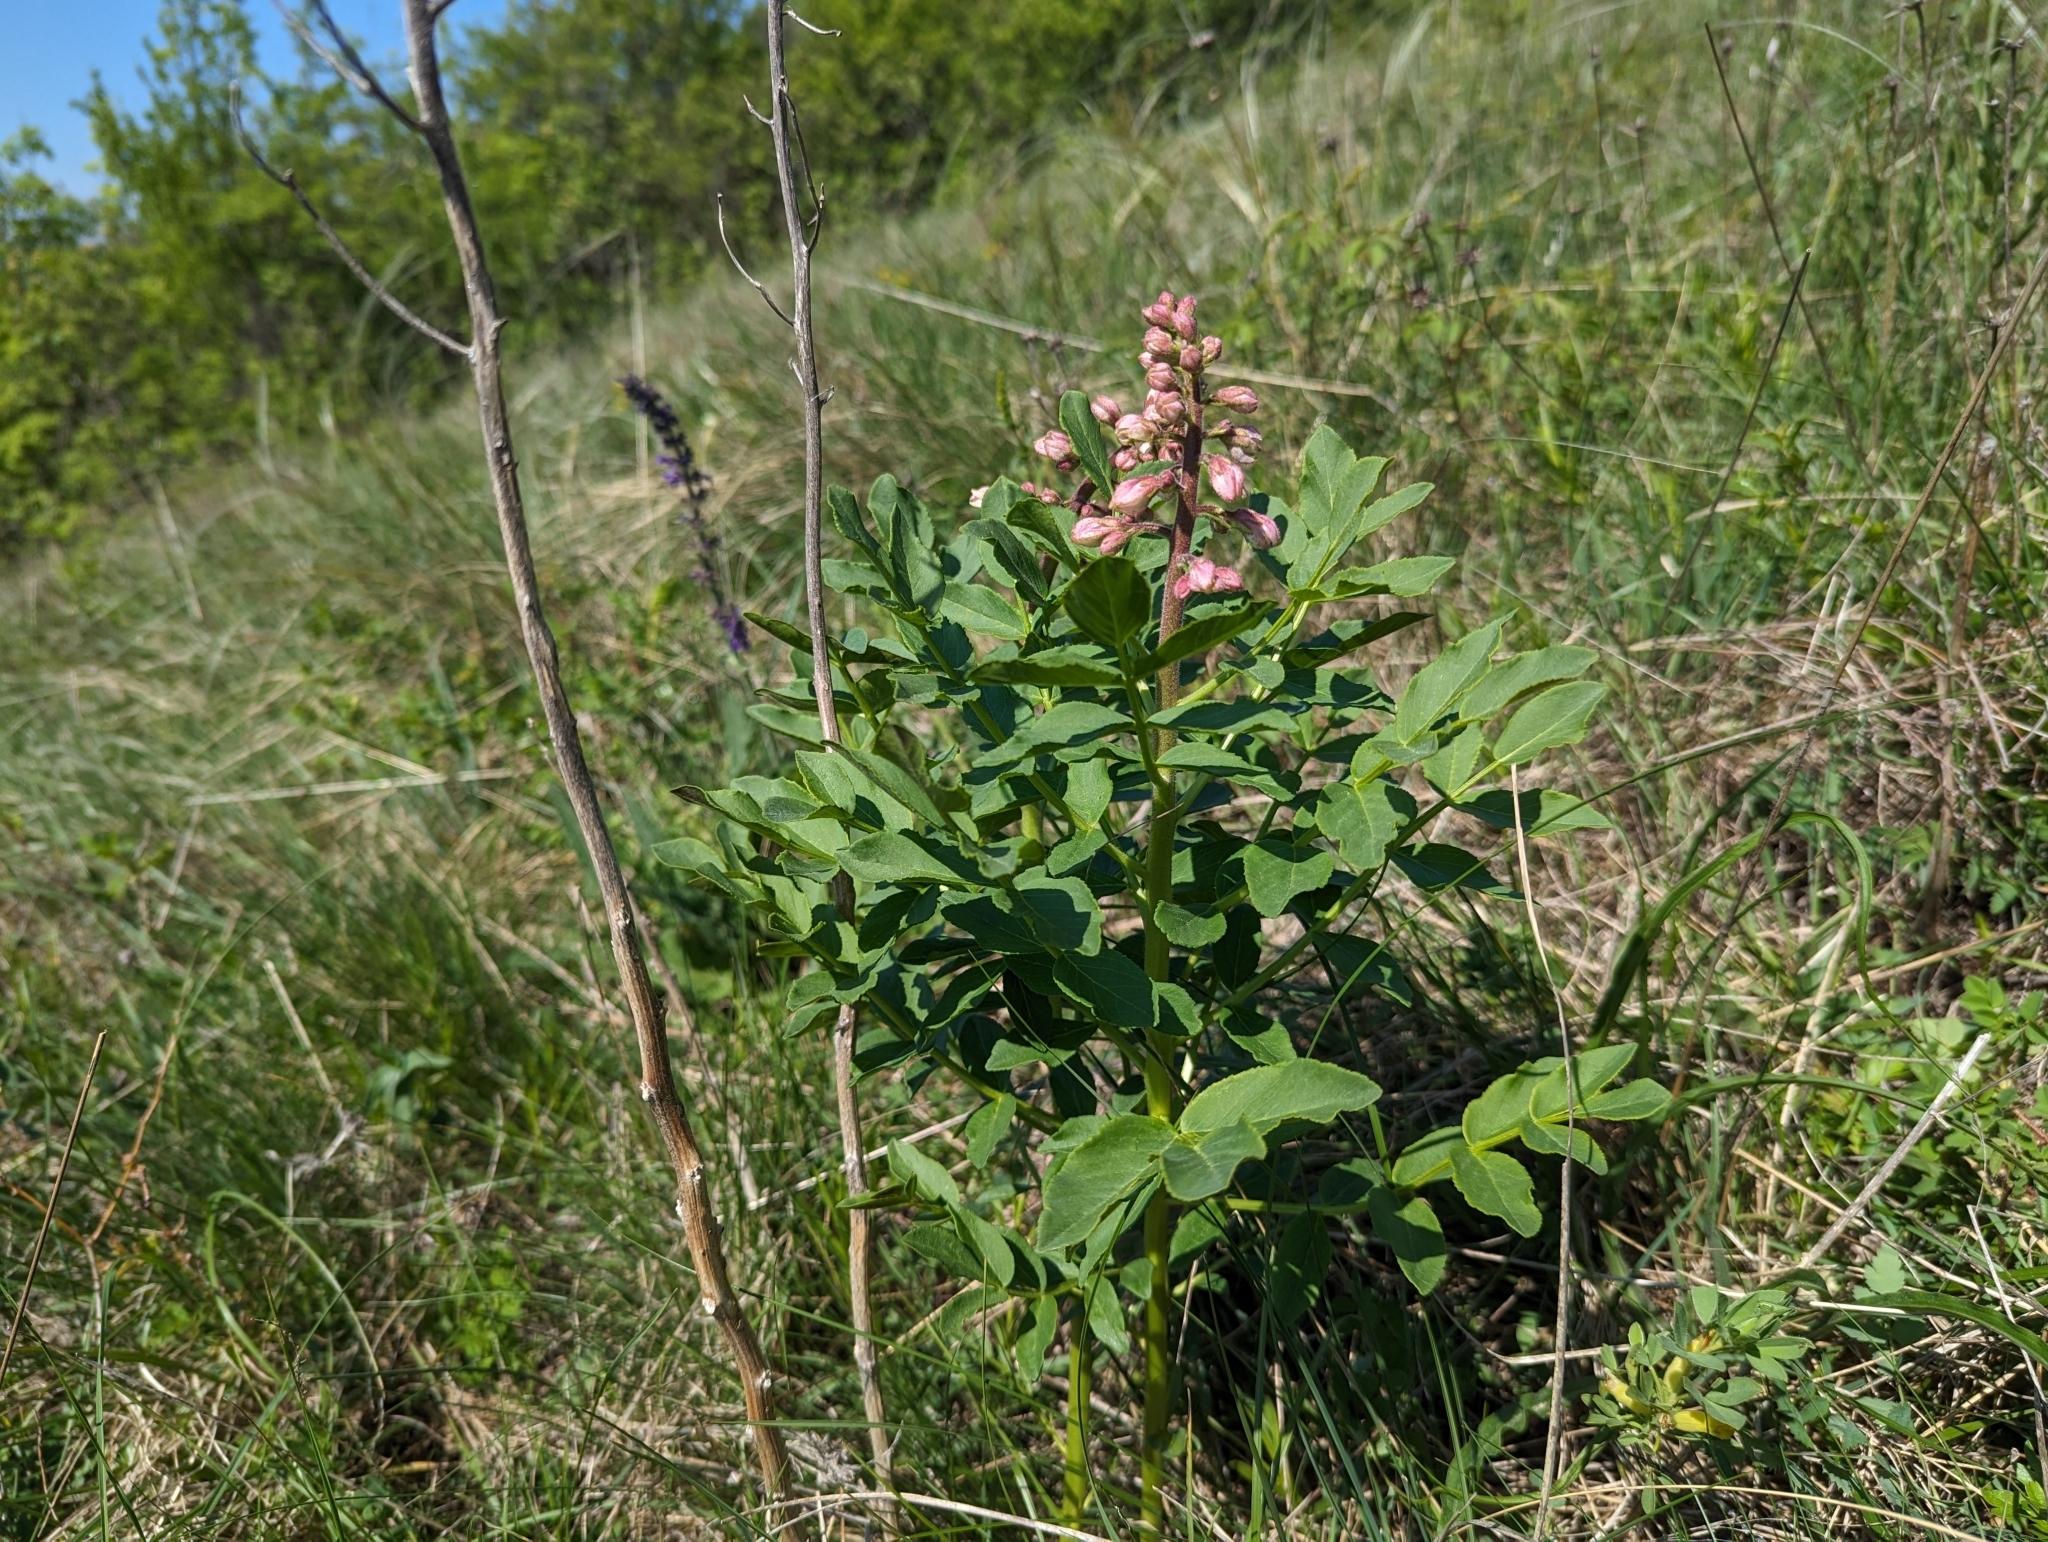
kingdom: Plantae
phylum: Tracheophyta
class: Magnoliopsida
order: Sapindales
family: Rutaceae
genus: Dictamnus
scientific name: Dictamnus albus
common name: Gasplant
